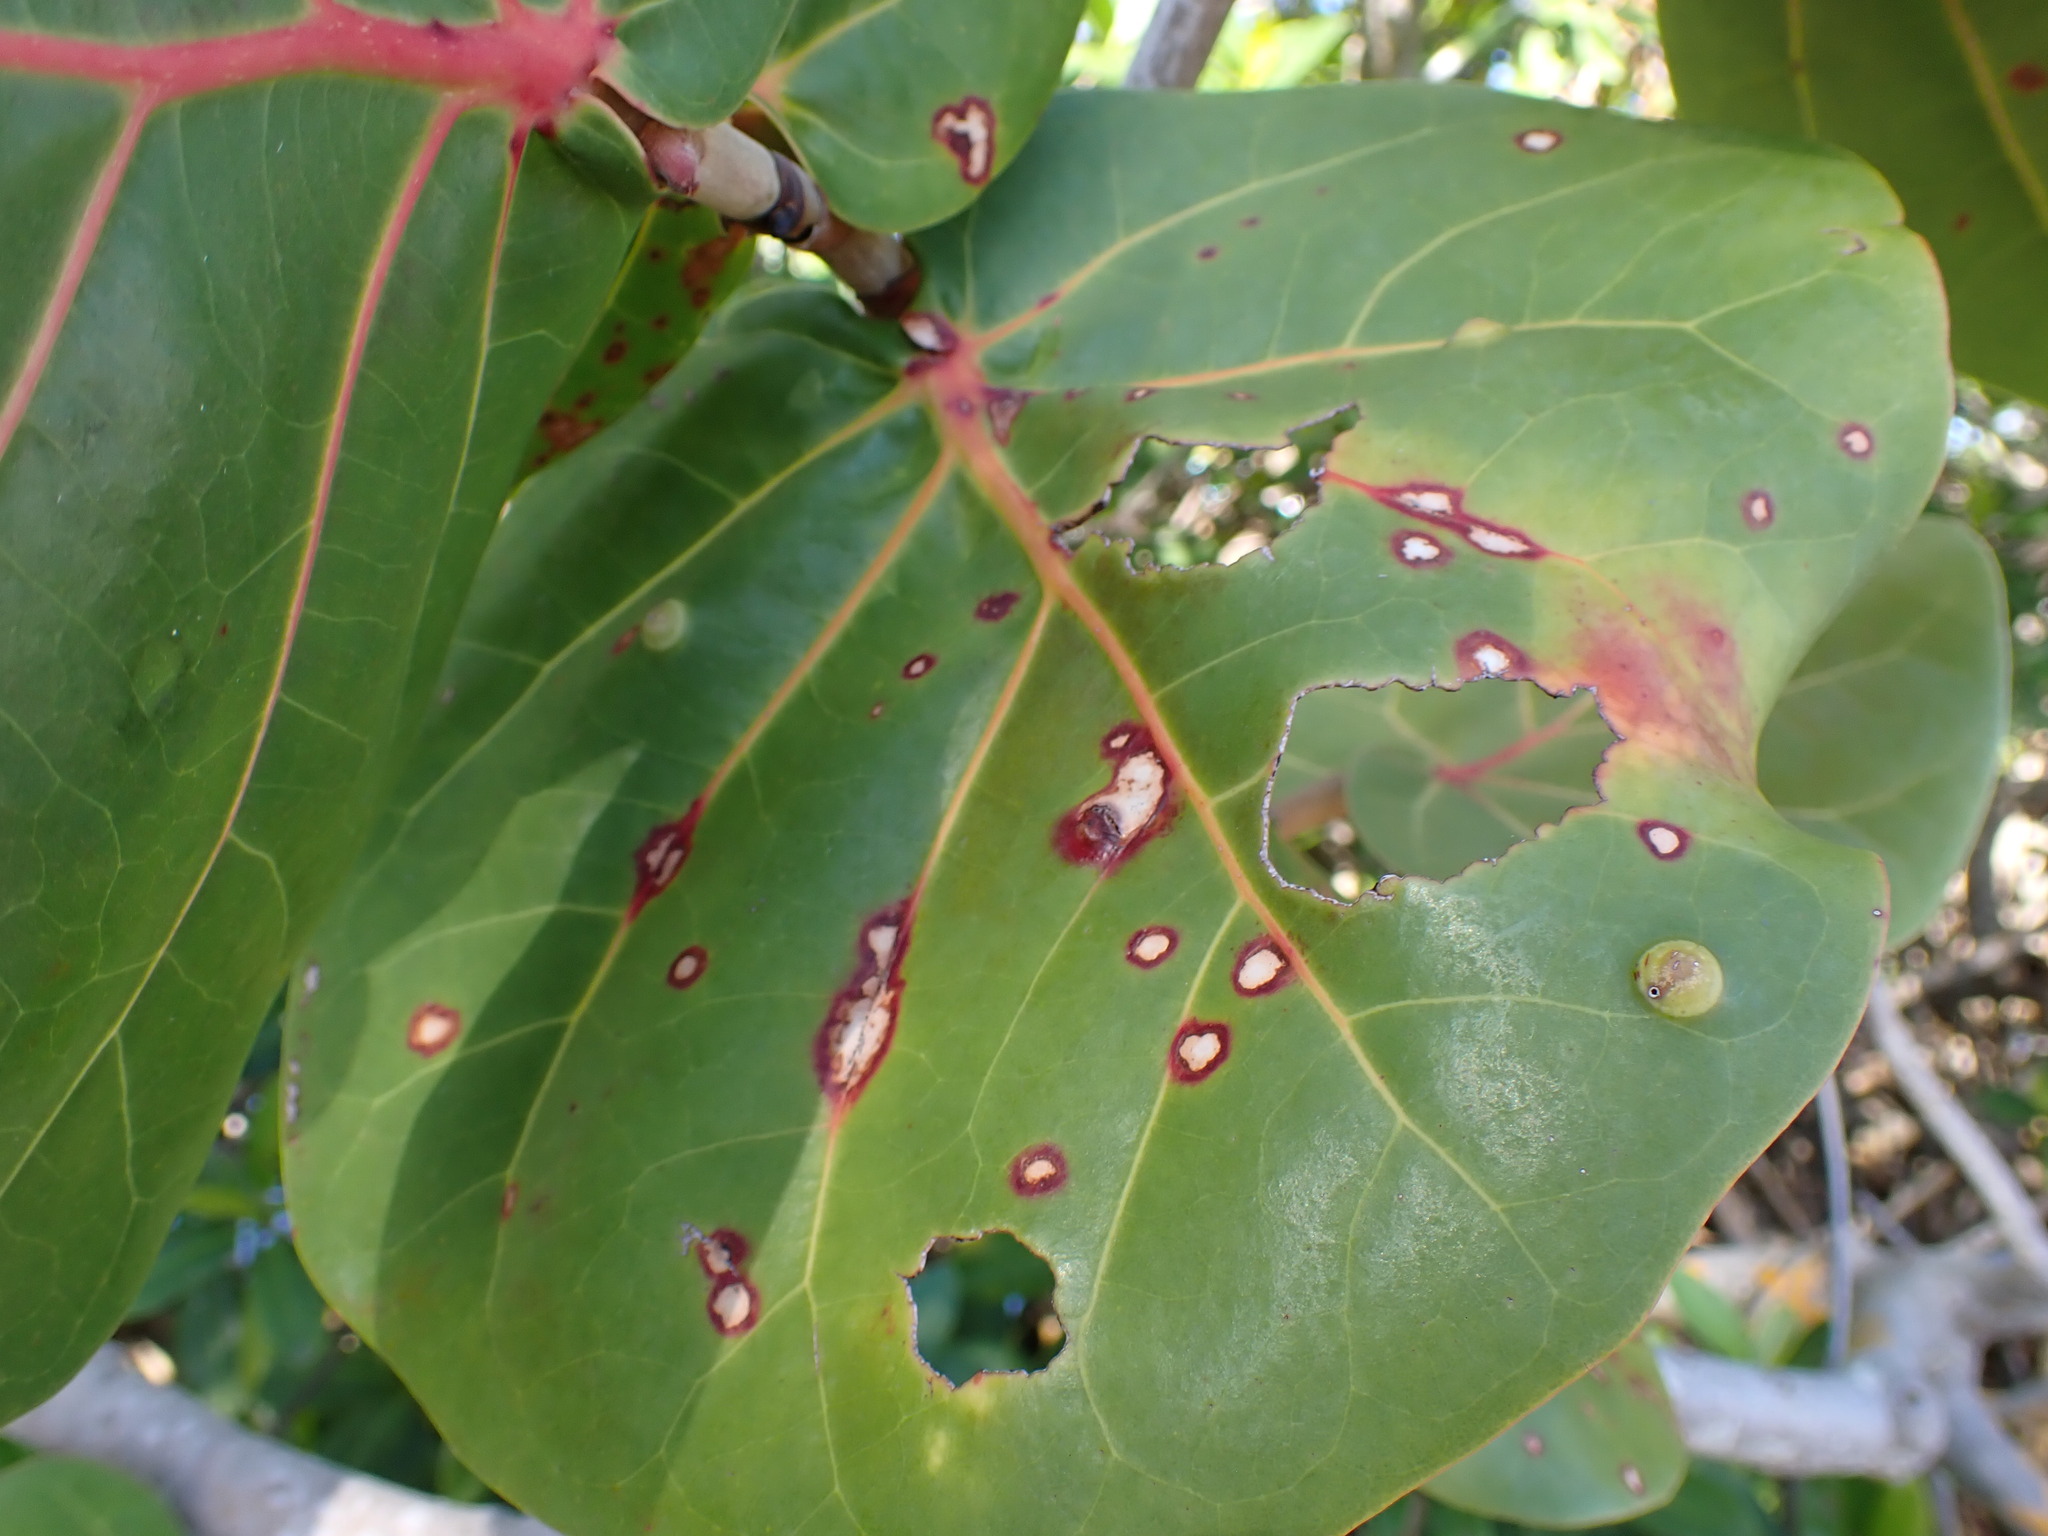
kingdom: Animalia
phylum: Arthropoda
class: Insecta
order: Diptera
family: Cecidomyiidae
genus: Ctenodactylomyia
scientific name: Ctenodactylomyia watsoni
